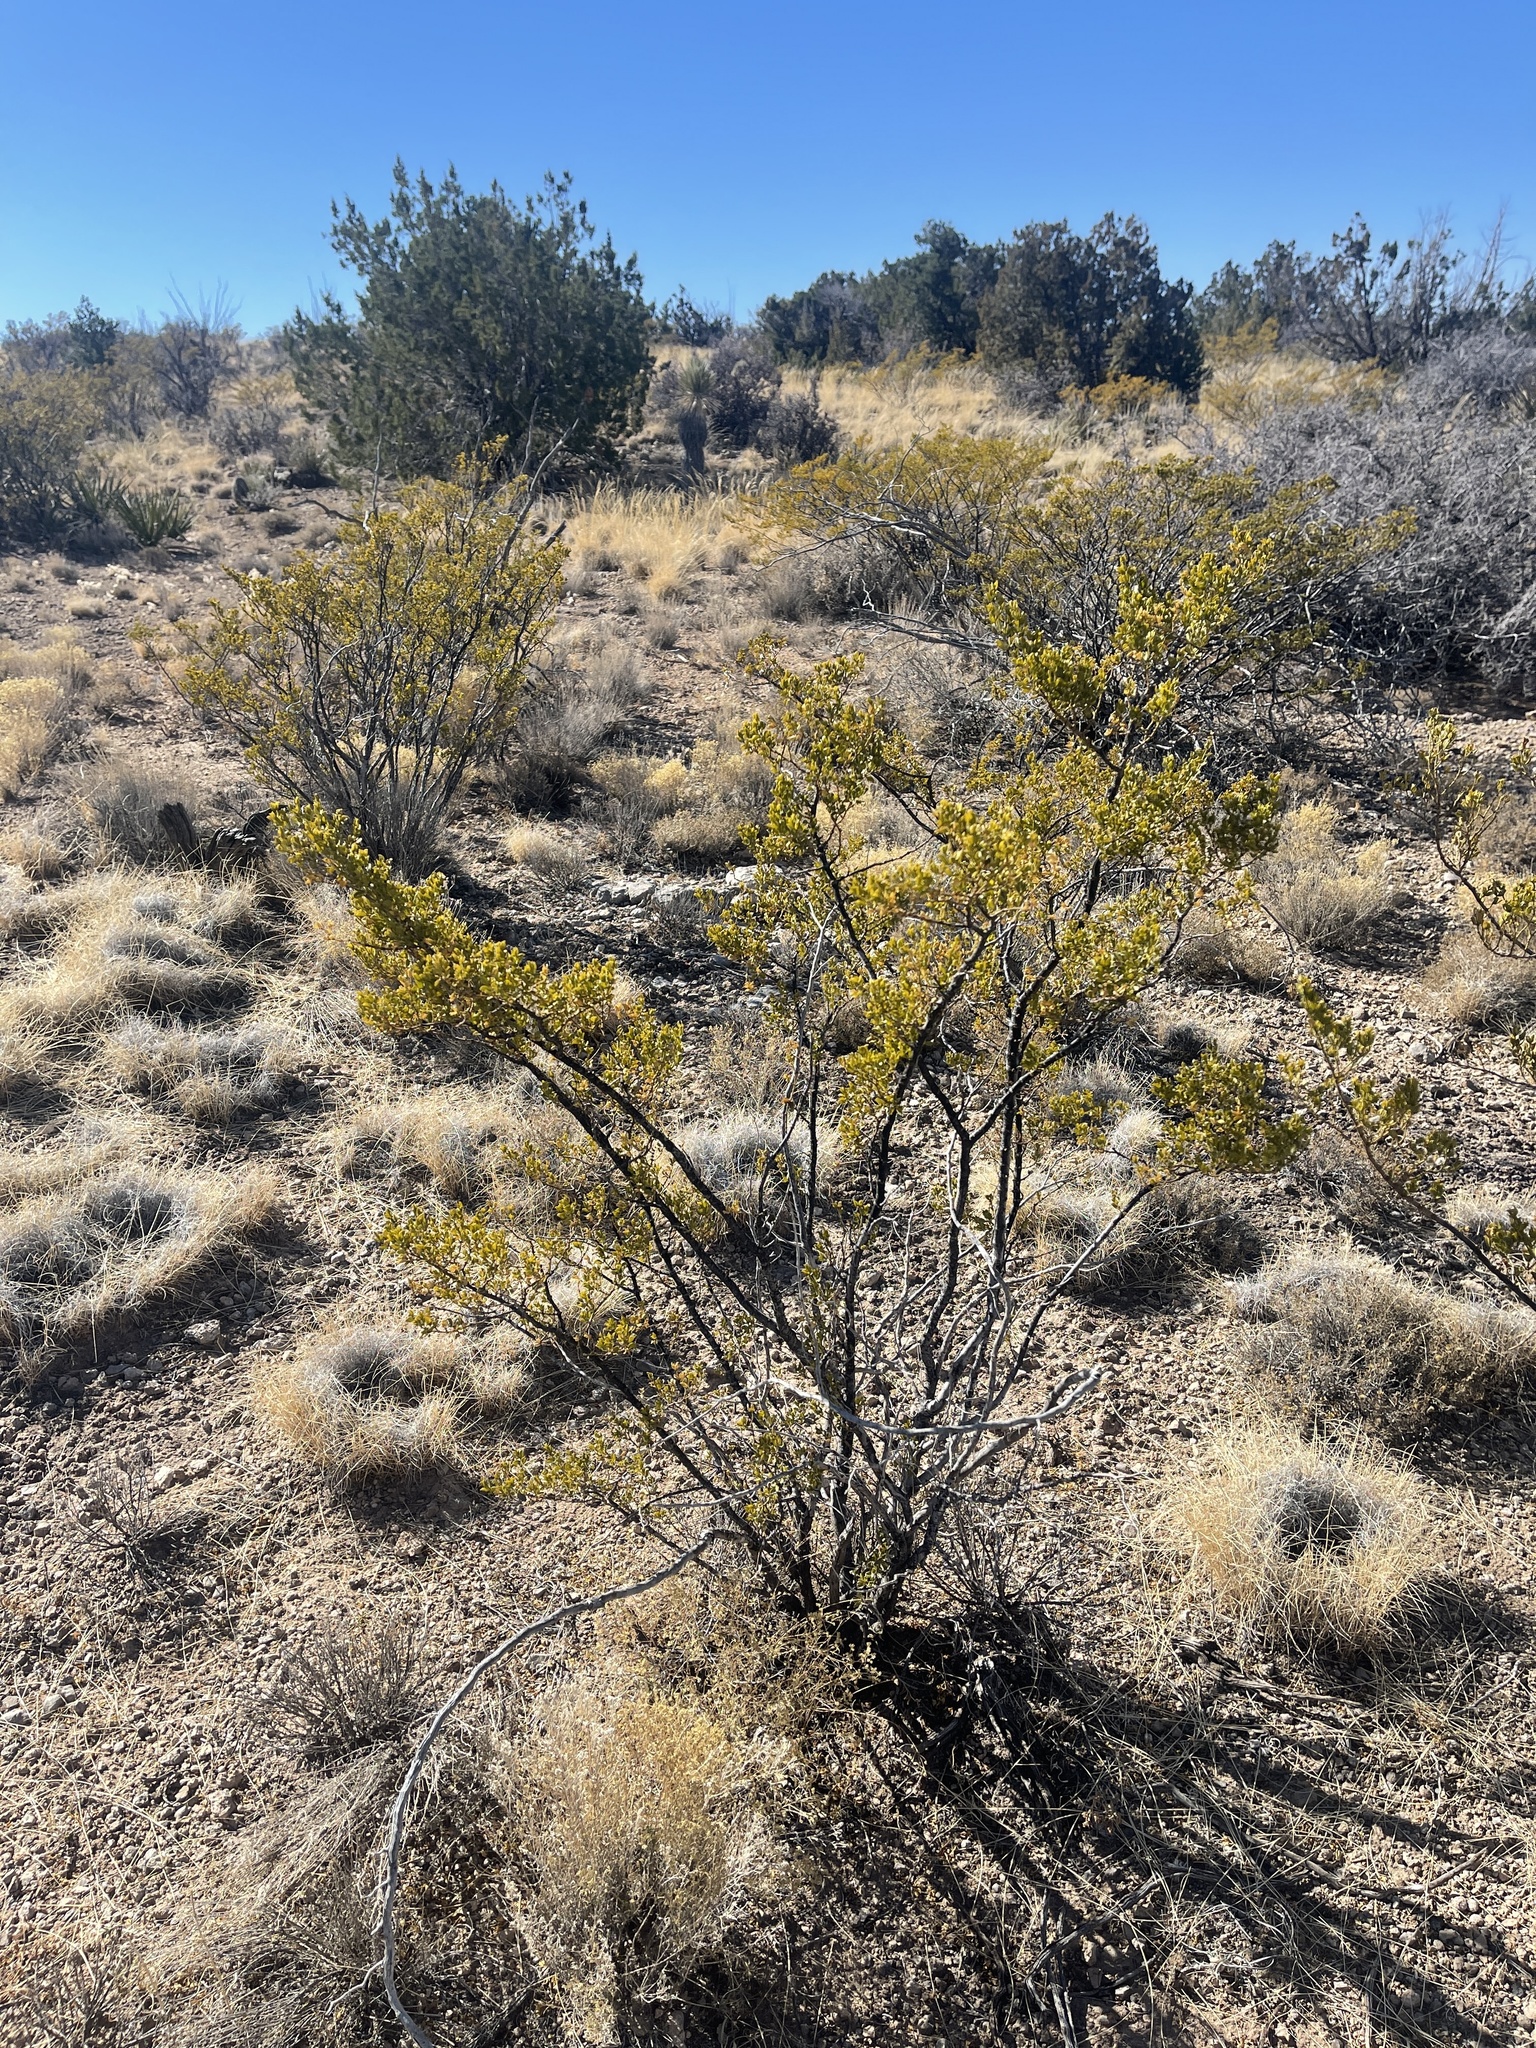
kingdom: Plantae
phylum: Tracheophyta
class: Magnoliopsida
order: Zygophyllales
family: Zygophyllaceae
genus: Larrea
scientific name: Larrea tridentata
